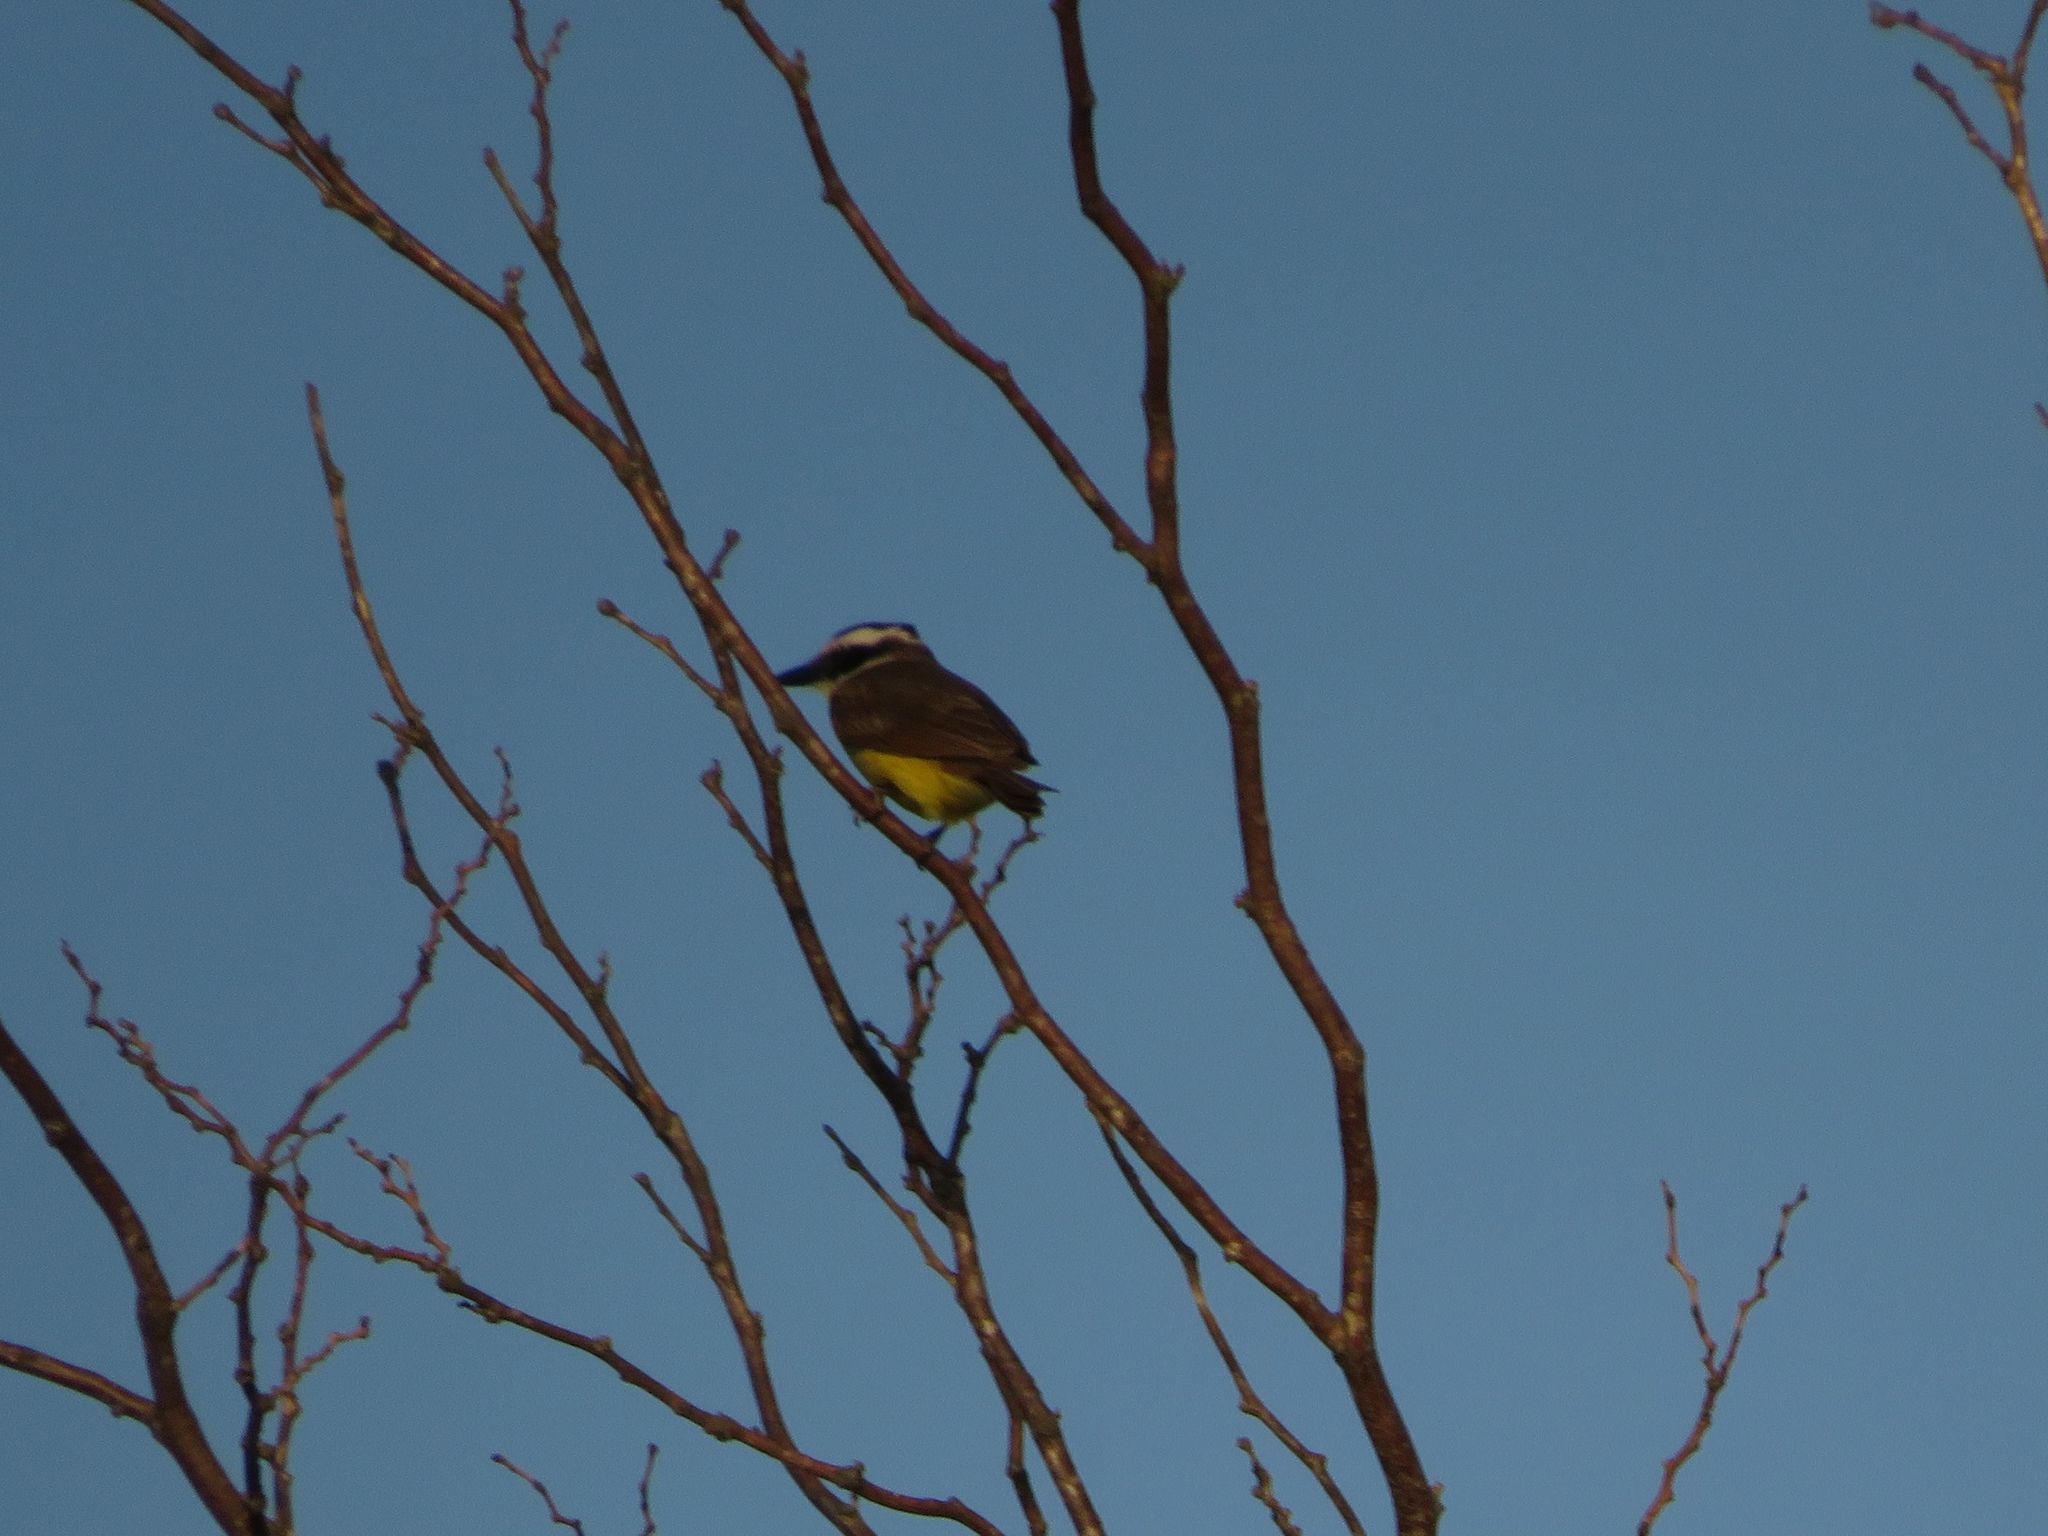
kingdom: Animalia
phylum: Chordata
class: Aves
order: Passeriformes
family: Tyrannidae
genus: Pitangus
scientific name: Pitangus sulphuratus
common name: Great kiskadee
